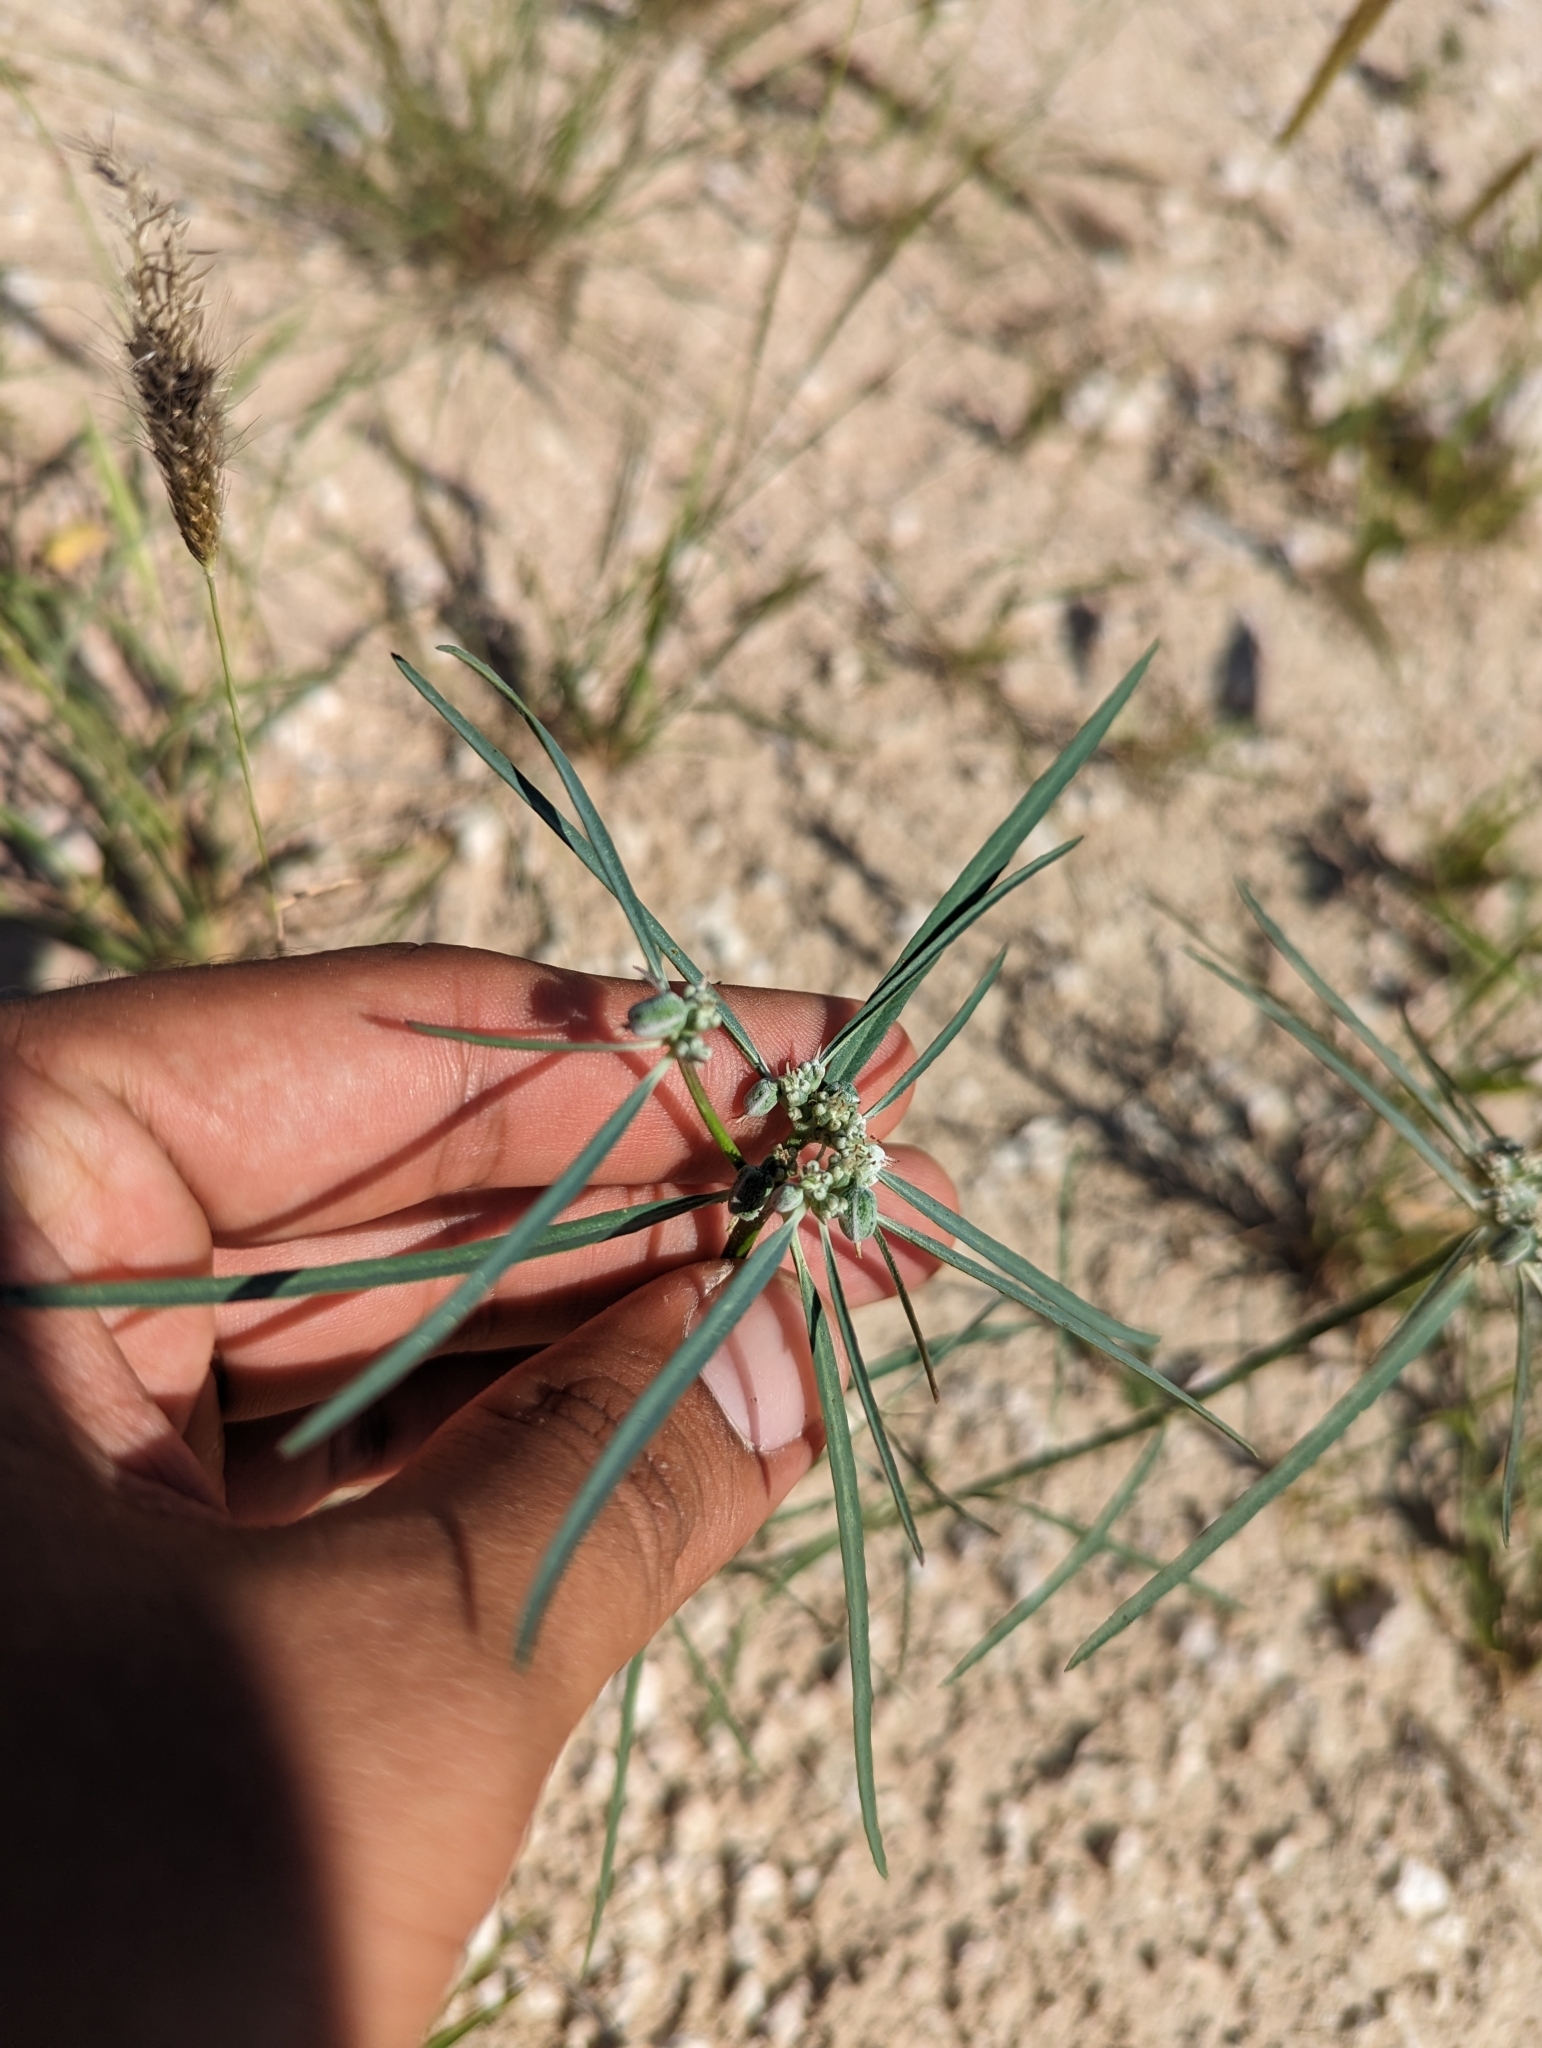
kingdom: Plantae
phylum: Tracheophyta
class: Magnoliopsida
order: Malpighiales
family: Euphorbiaceae
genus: Euphorbia
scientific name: Euphorbia eriantha
